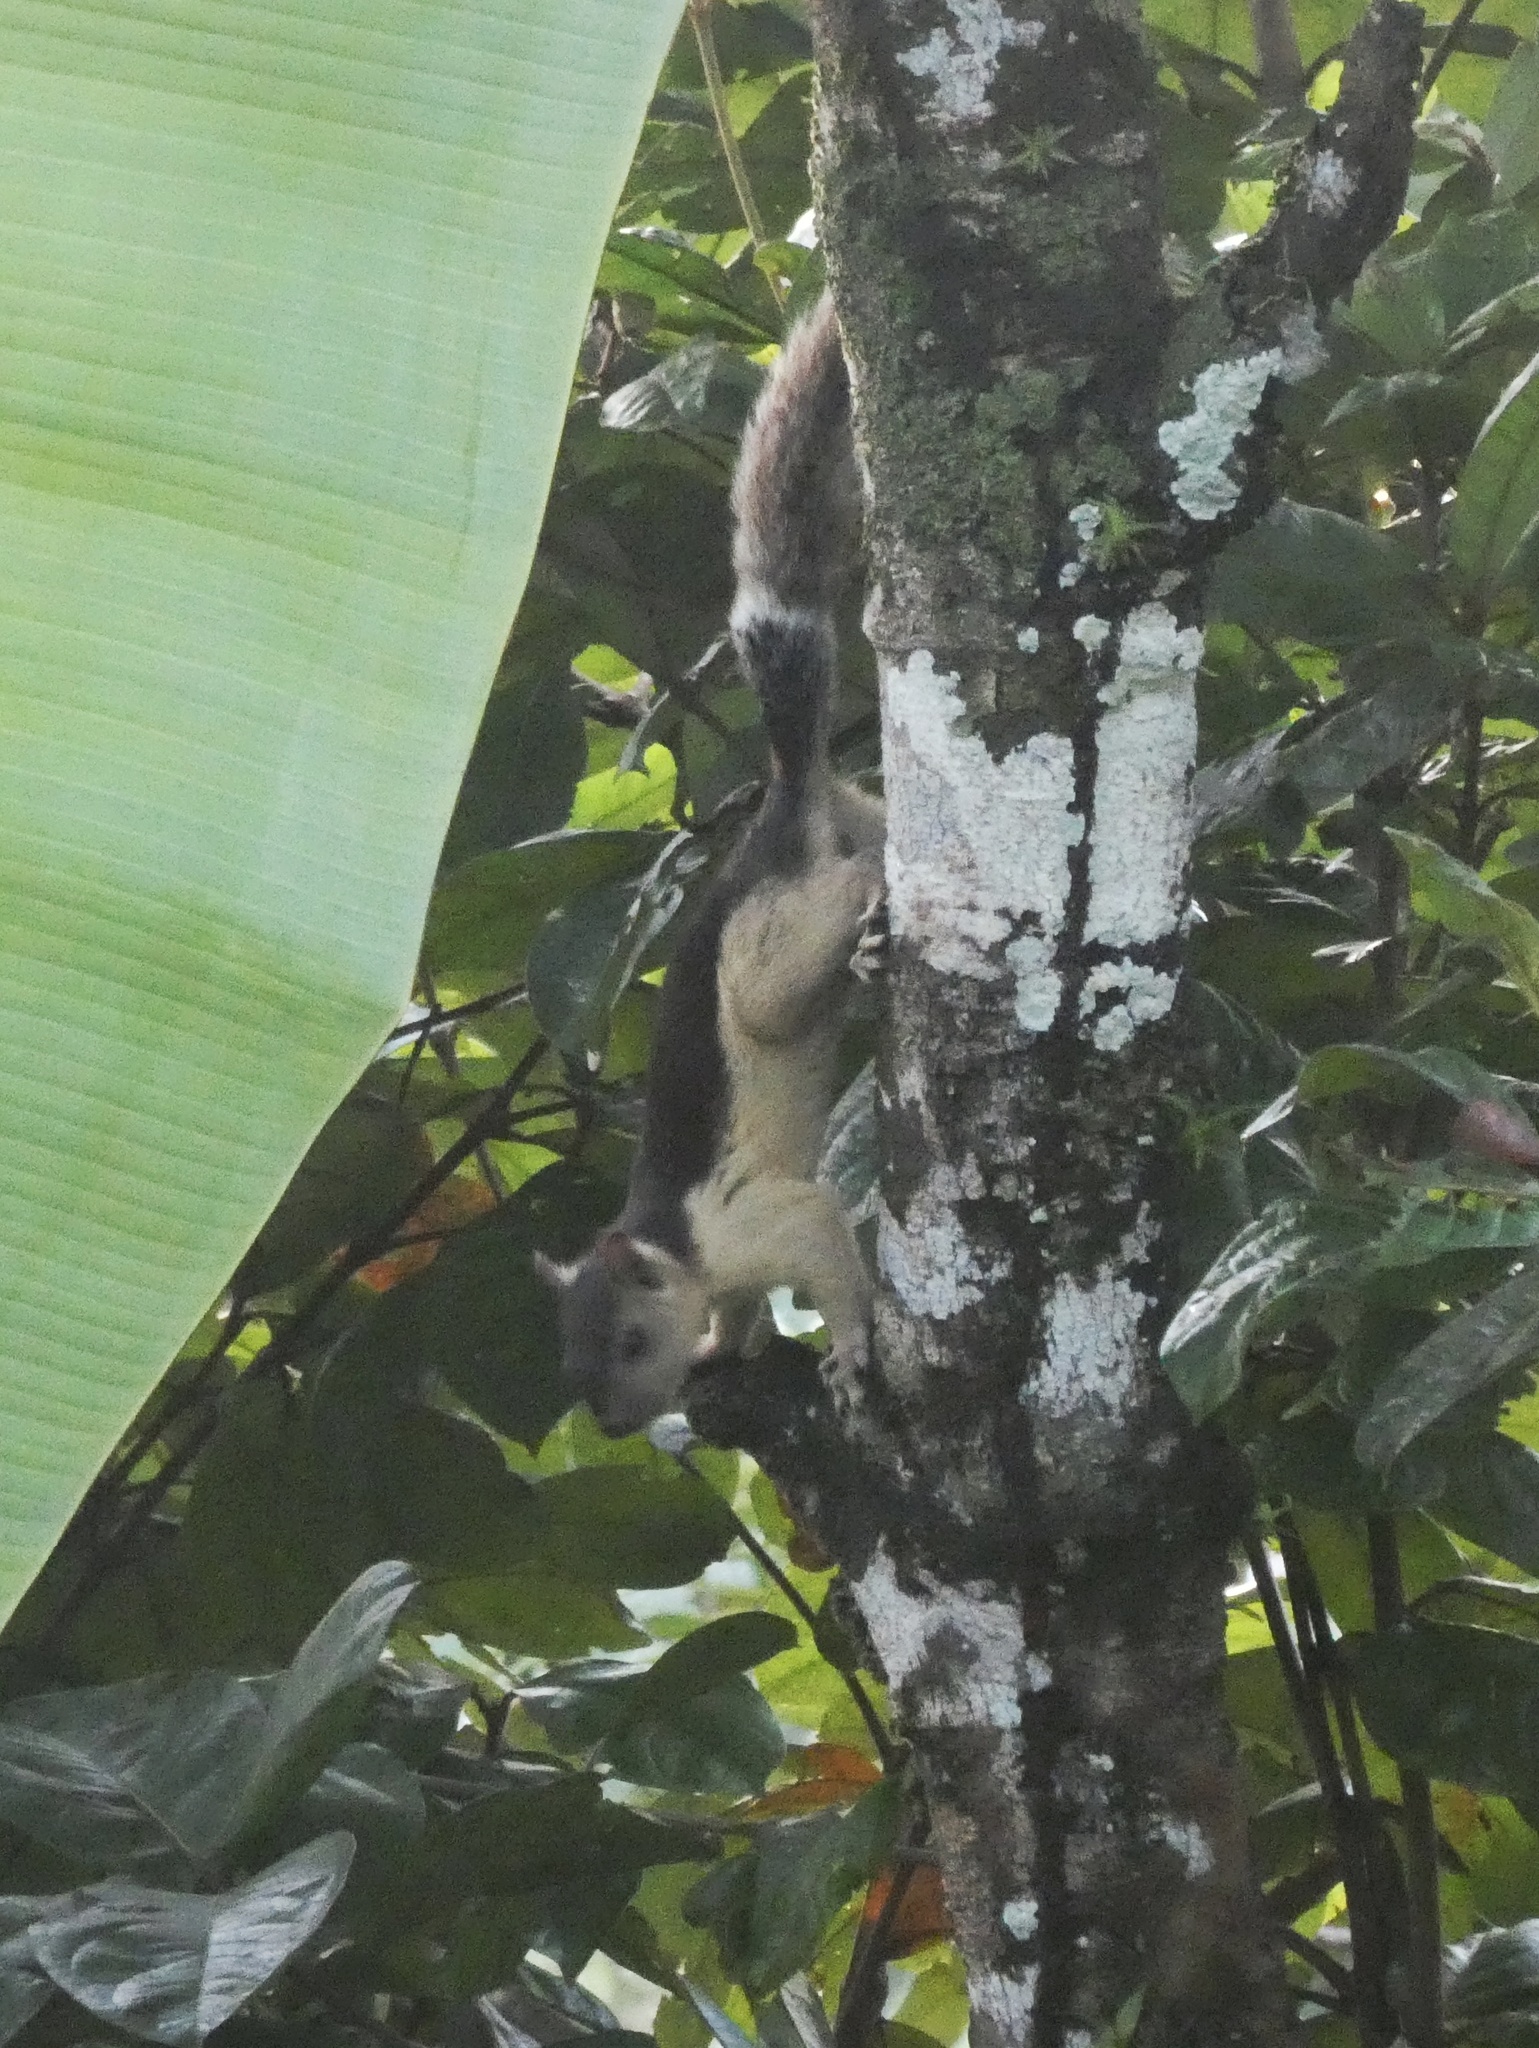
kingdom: Animalia
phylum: Chordata
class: Mammalia
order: Rodentia
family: Sciuridae
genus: Sciurus
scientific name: Sciurus variegatoides
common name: Variegated squirrel
